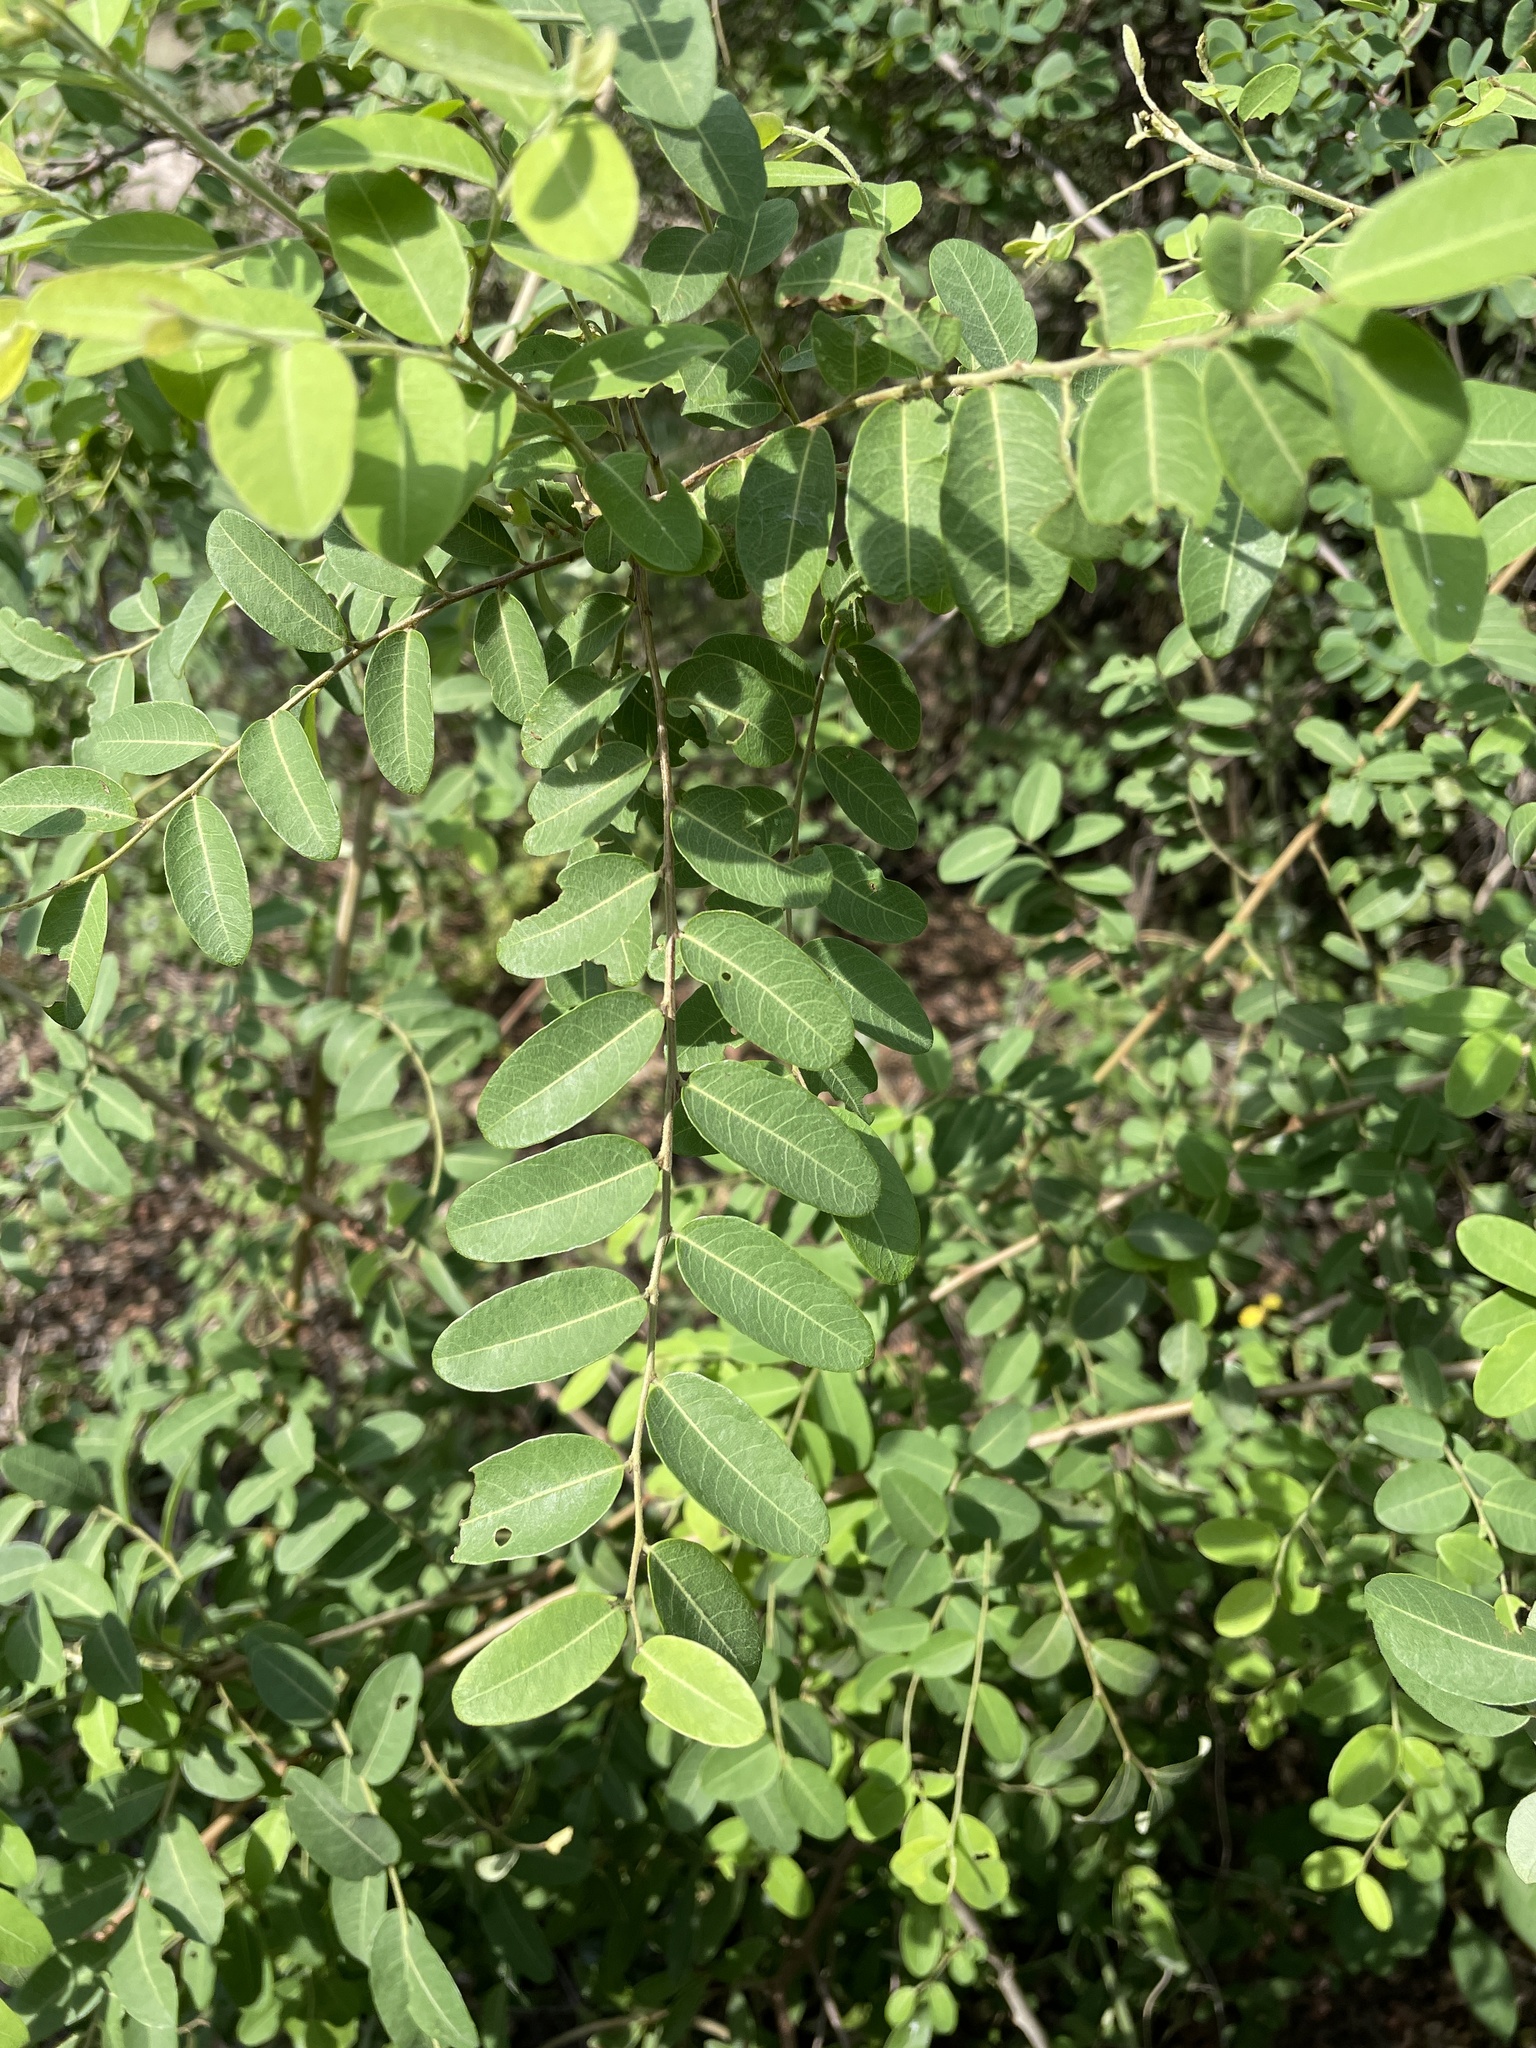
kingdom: Plantae
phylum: Tracheophyta
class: Magnoliopsida
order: Malpighiales
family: Phyllanthaceae
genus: Phyllanthus
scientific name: Phyllanthus reticulatus
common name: Potato bush
